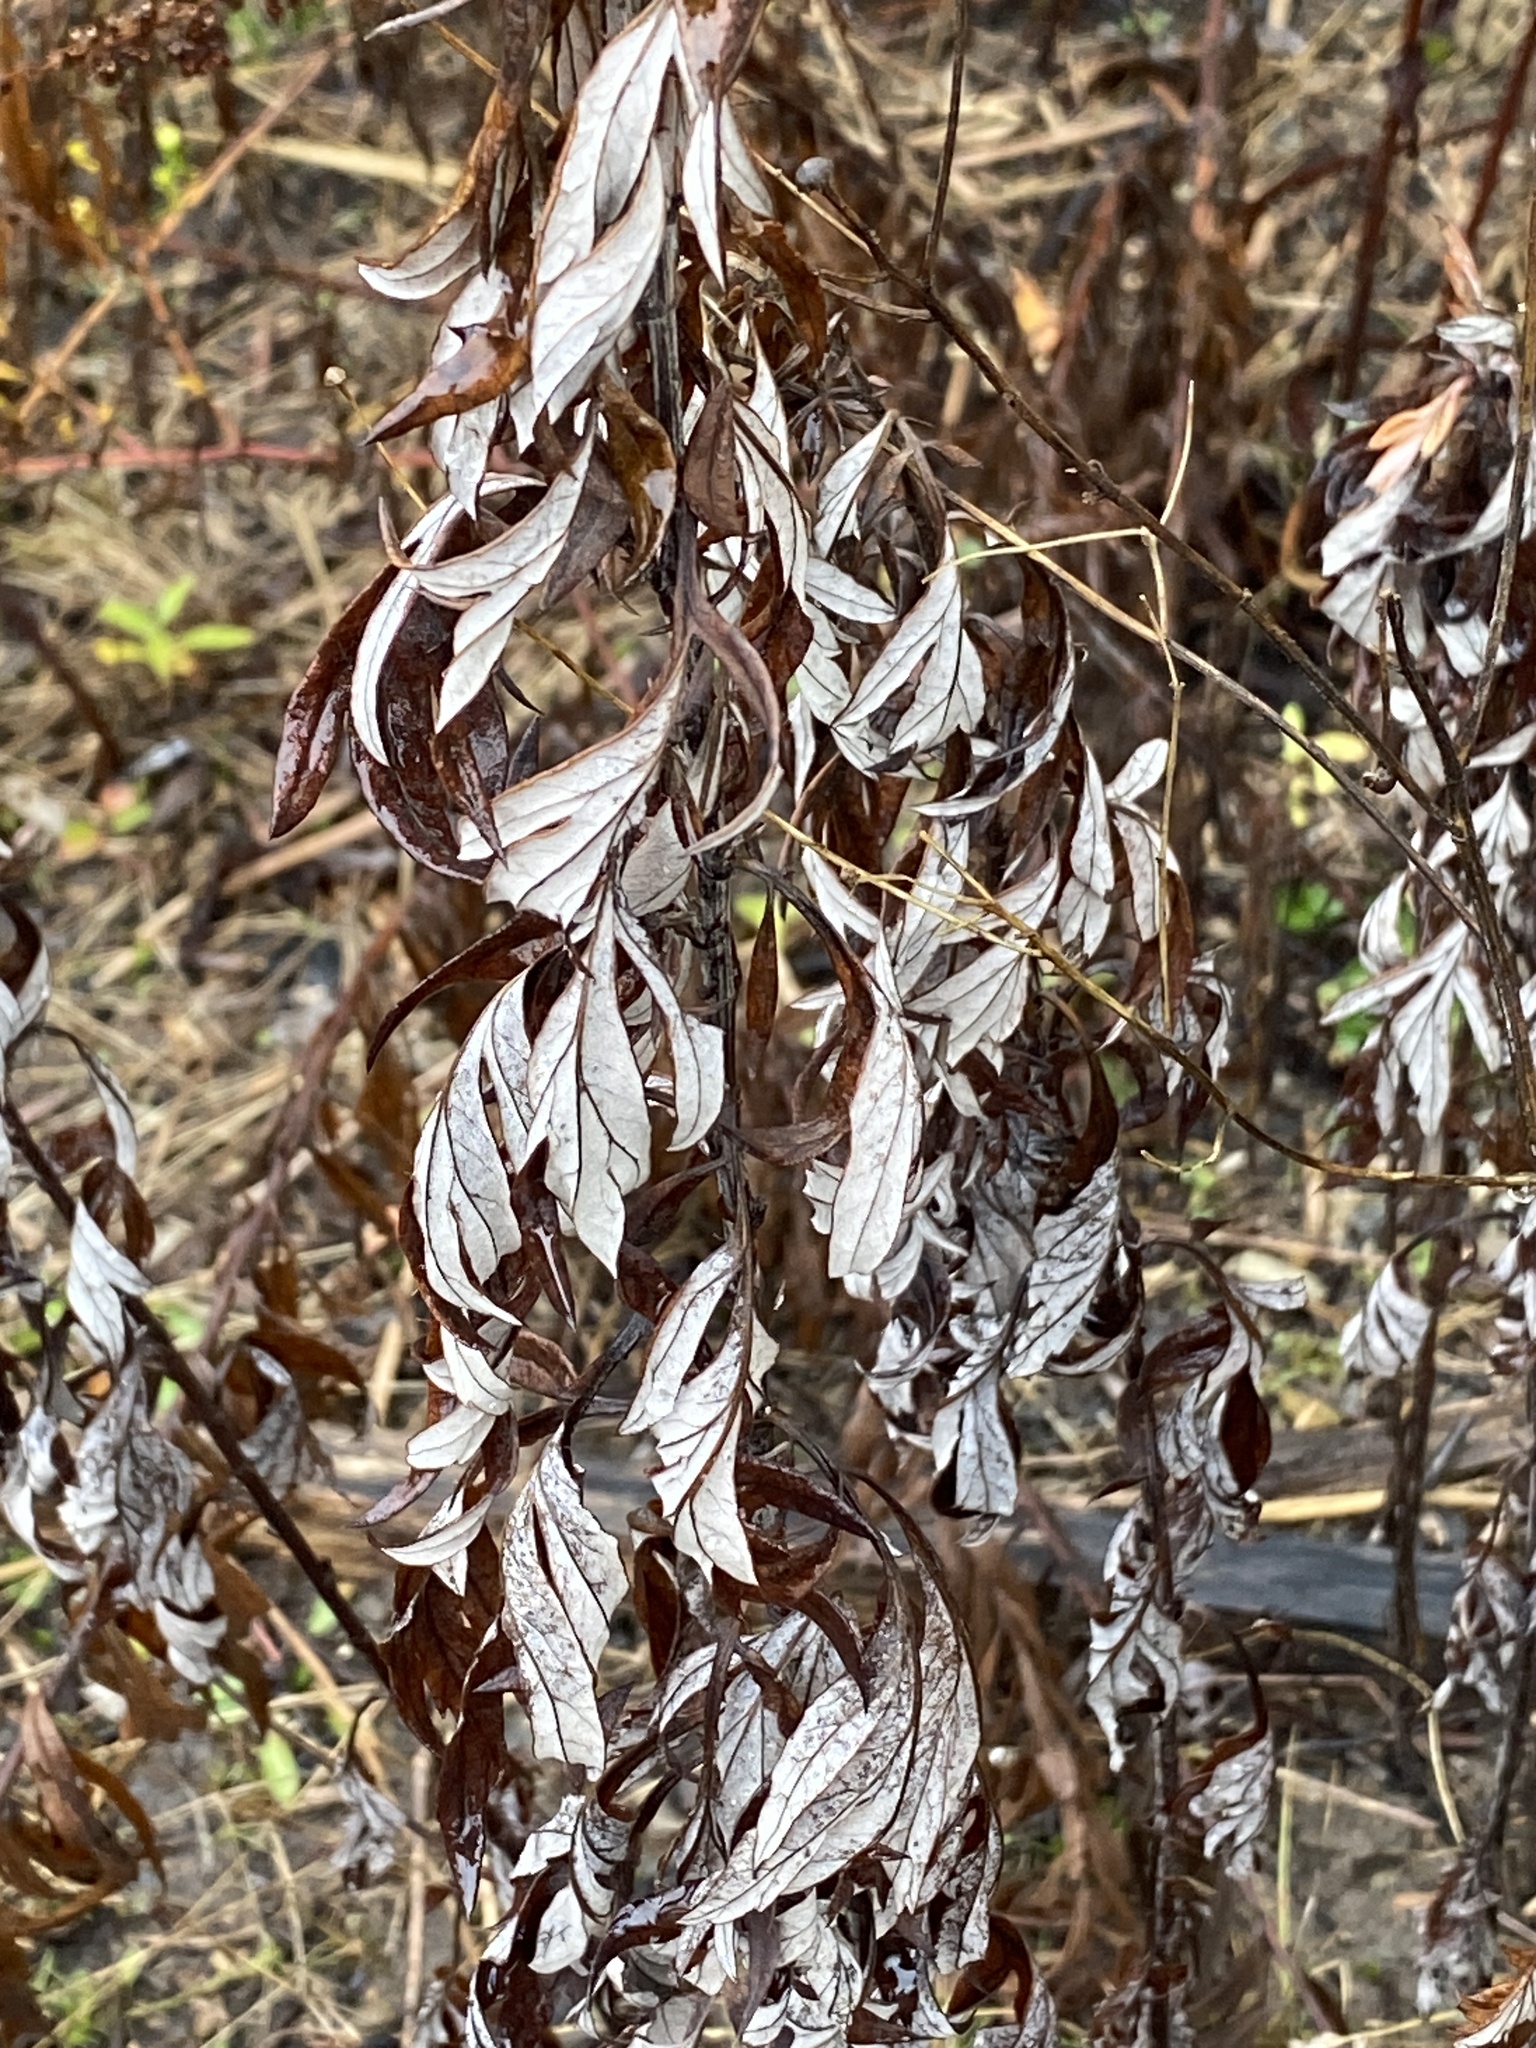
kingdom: Plantae
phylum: Tracheophyta
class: Magnoliopsida
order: Asterales
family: Asteraceae
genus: Artemisia
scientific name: Artemisia vulgaris
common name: Mugwort
